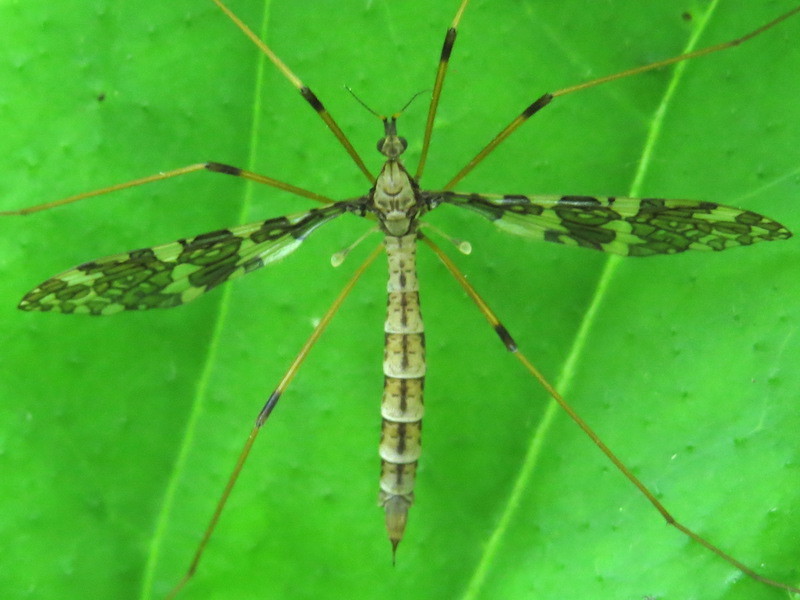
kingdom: Animalia
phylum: Arthropoda
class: Insecta
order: Diptera
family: Limoniidae
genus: Epiphragma
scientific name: Epiphragma fasciapenne
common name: Band-winged crane fly
